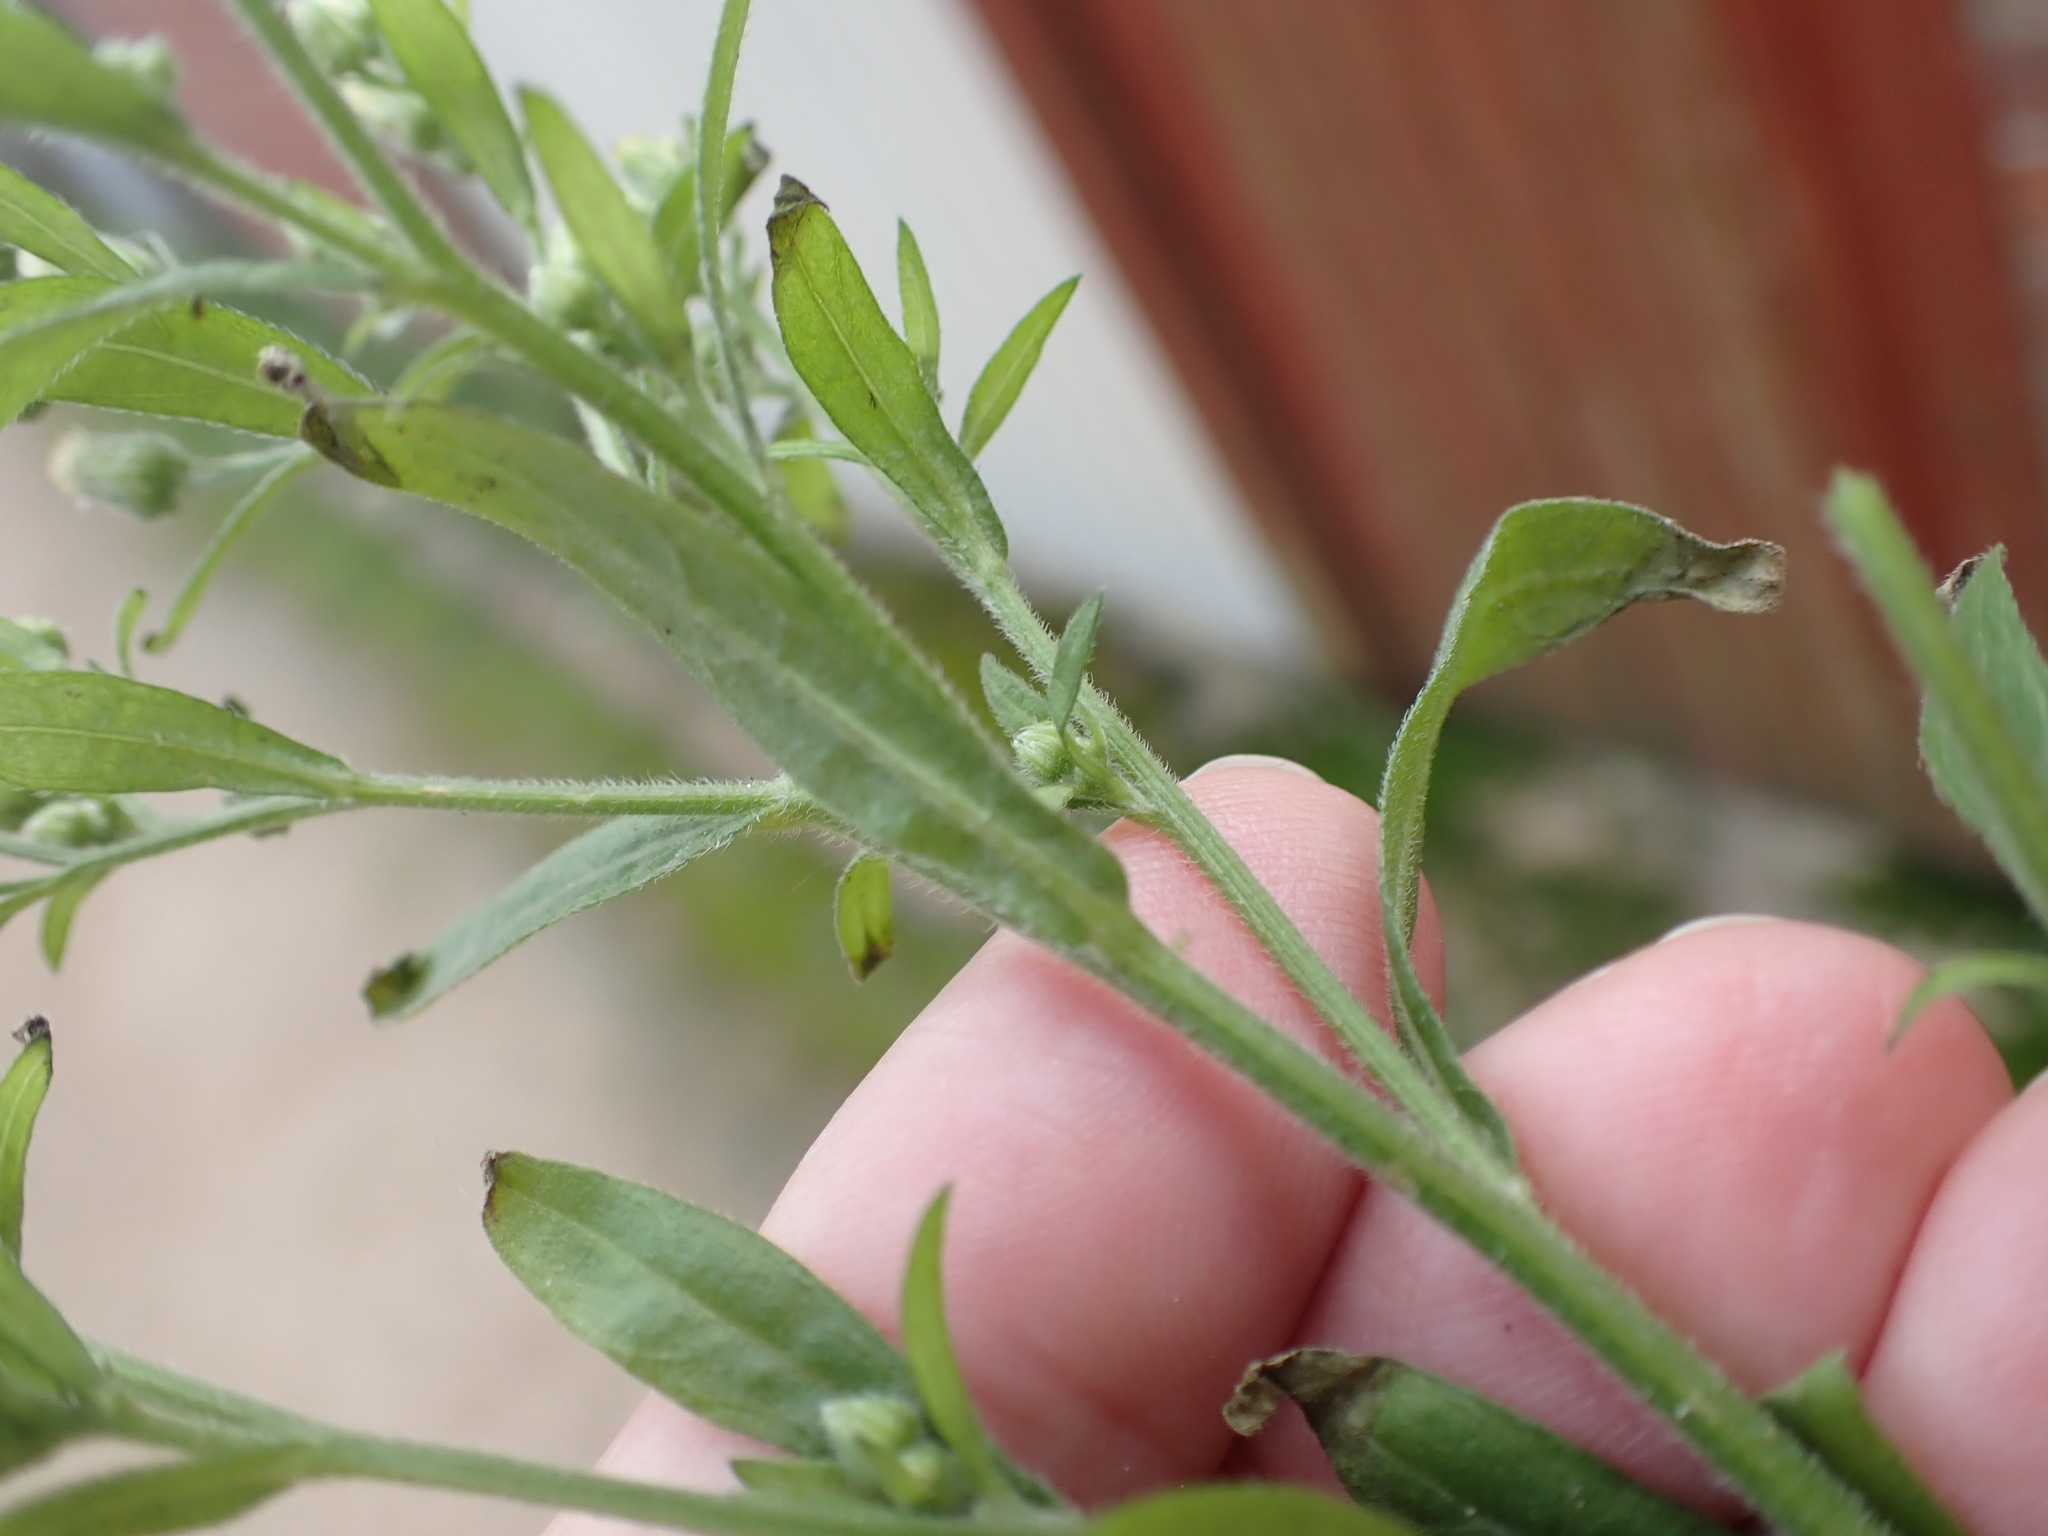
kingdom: Plantae
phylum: Tracheophyta
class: Magnoliopsida
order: Asterales
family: Asteraceae
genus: Erigeron
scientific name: Erigeron sumatrensis
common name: Daisy
